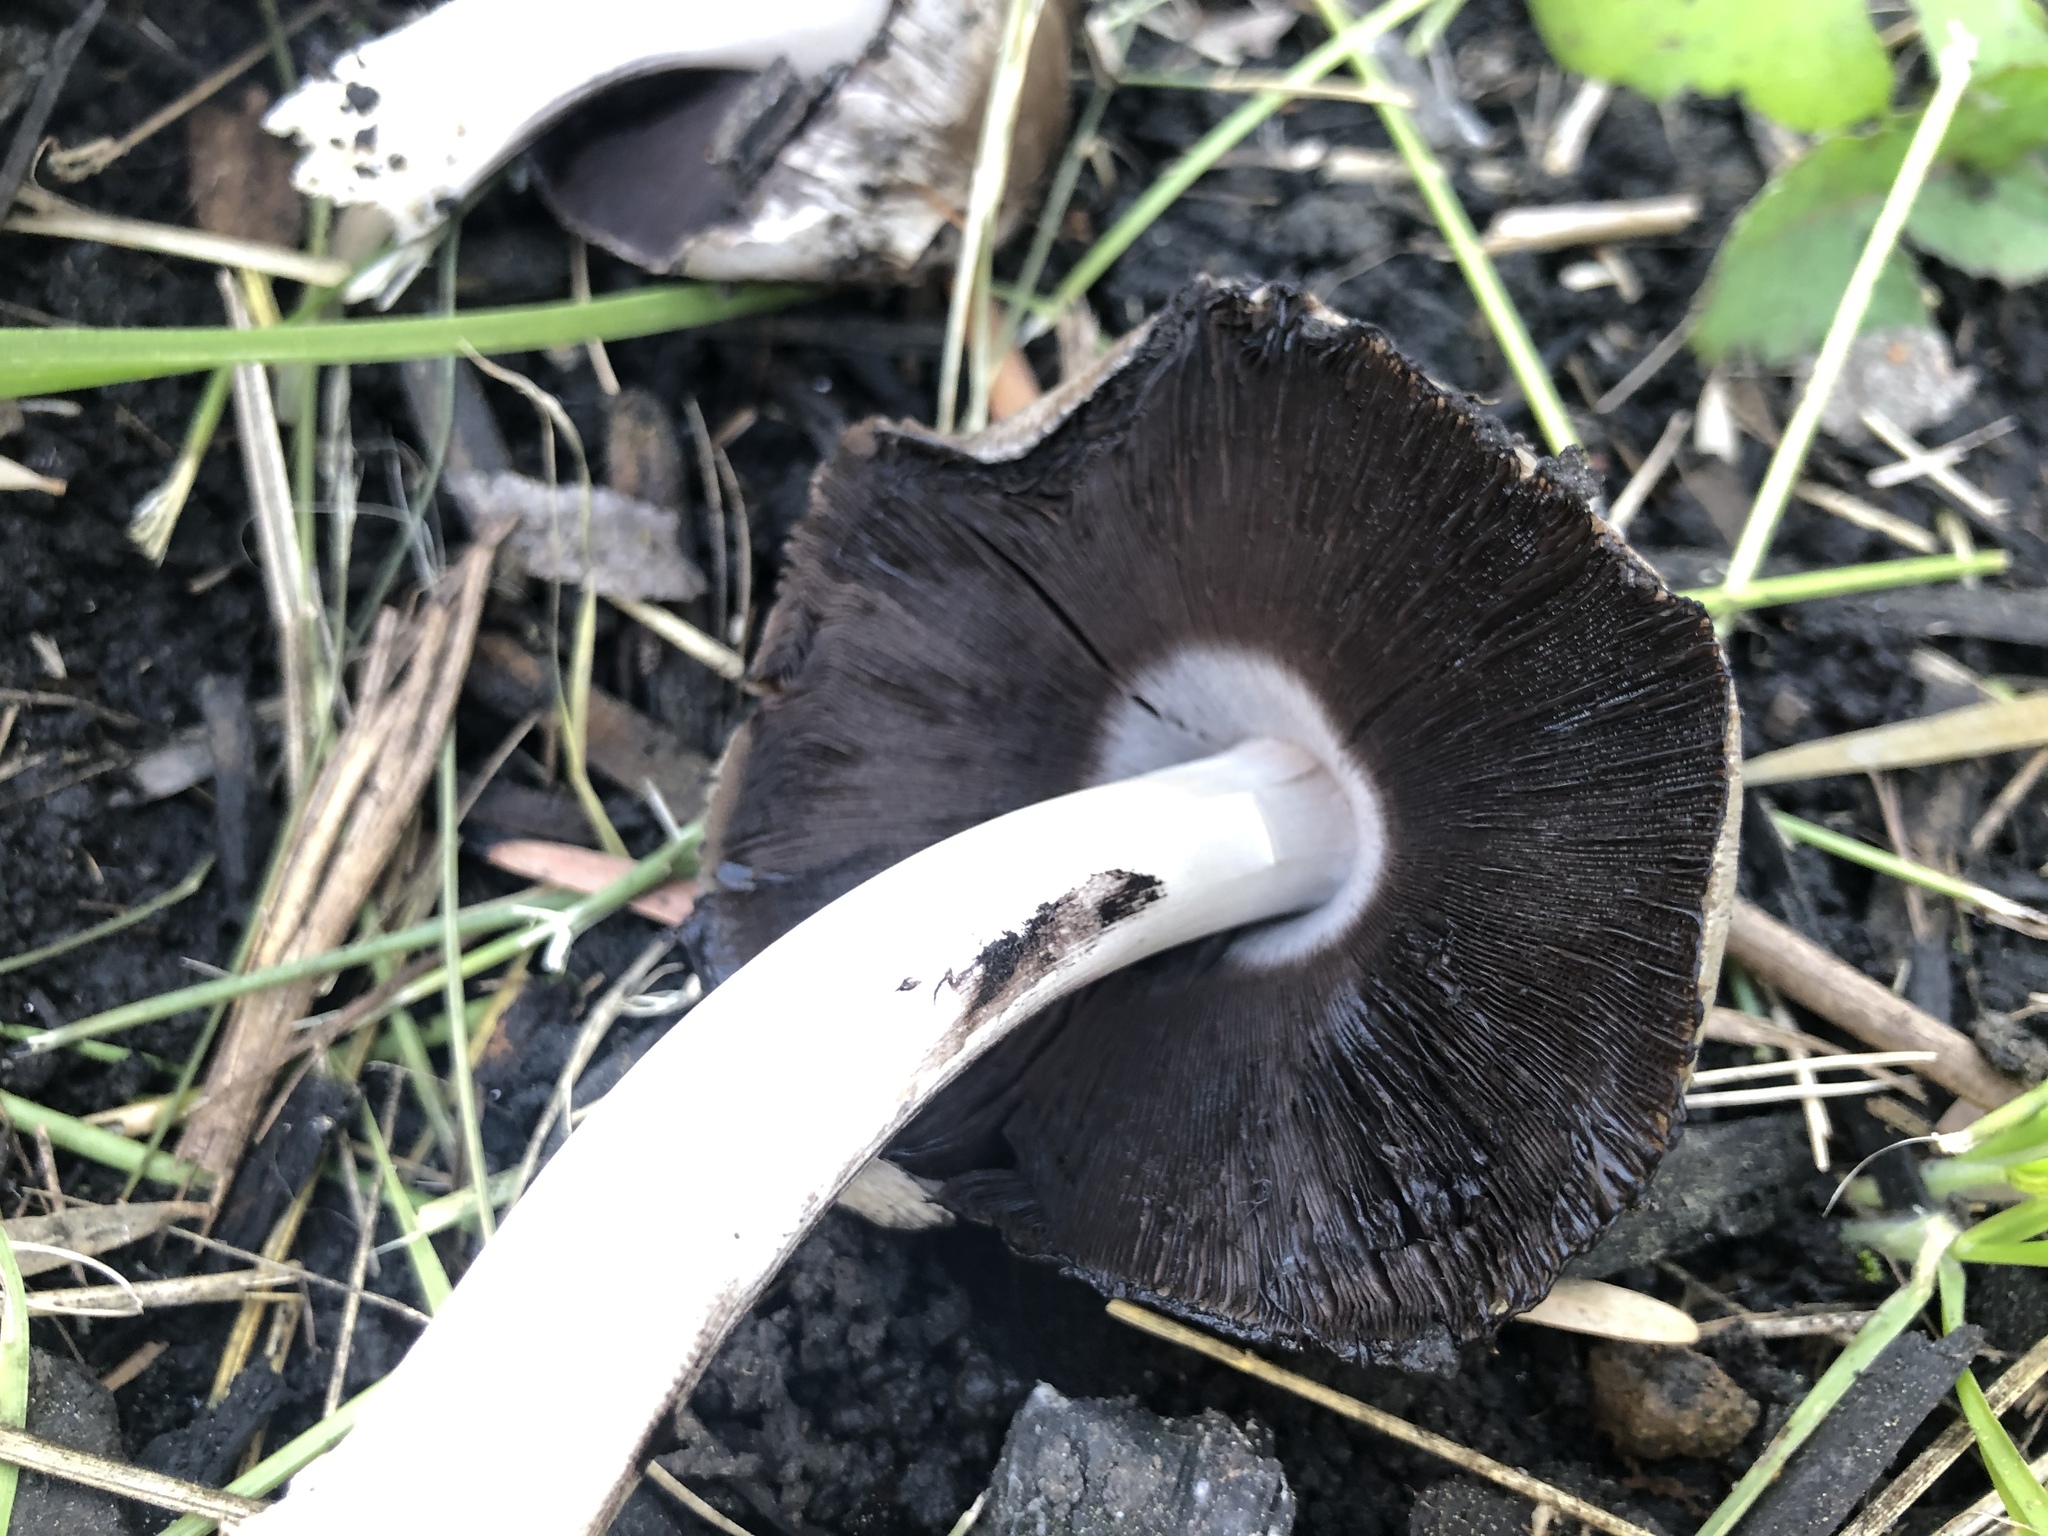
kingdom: Fungi
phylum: Basidiomycota
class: Agaricomycetes
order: Agaricales
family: Psathyrellaceae
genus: Coprinopsis
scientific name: Coprinopsis atramentaria
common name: Common ink-cap
